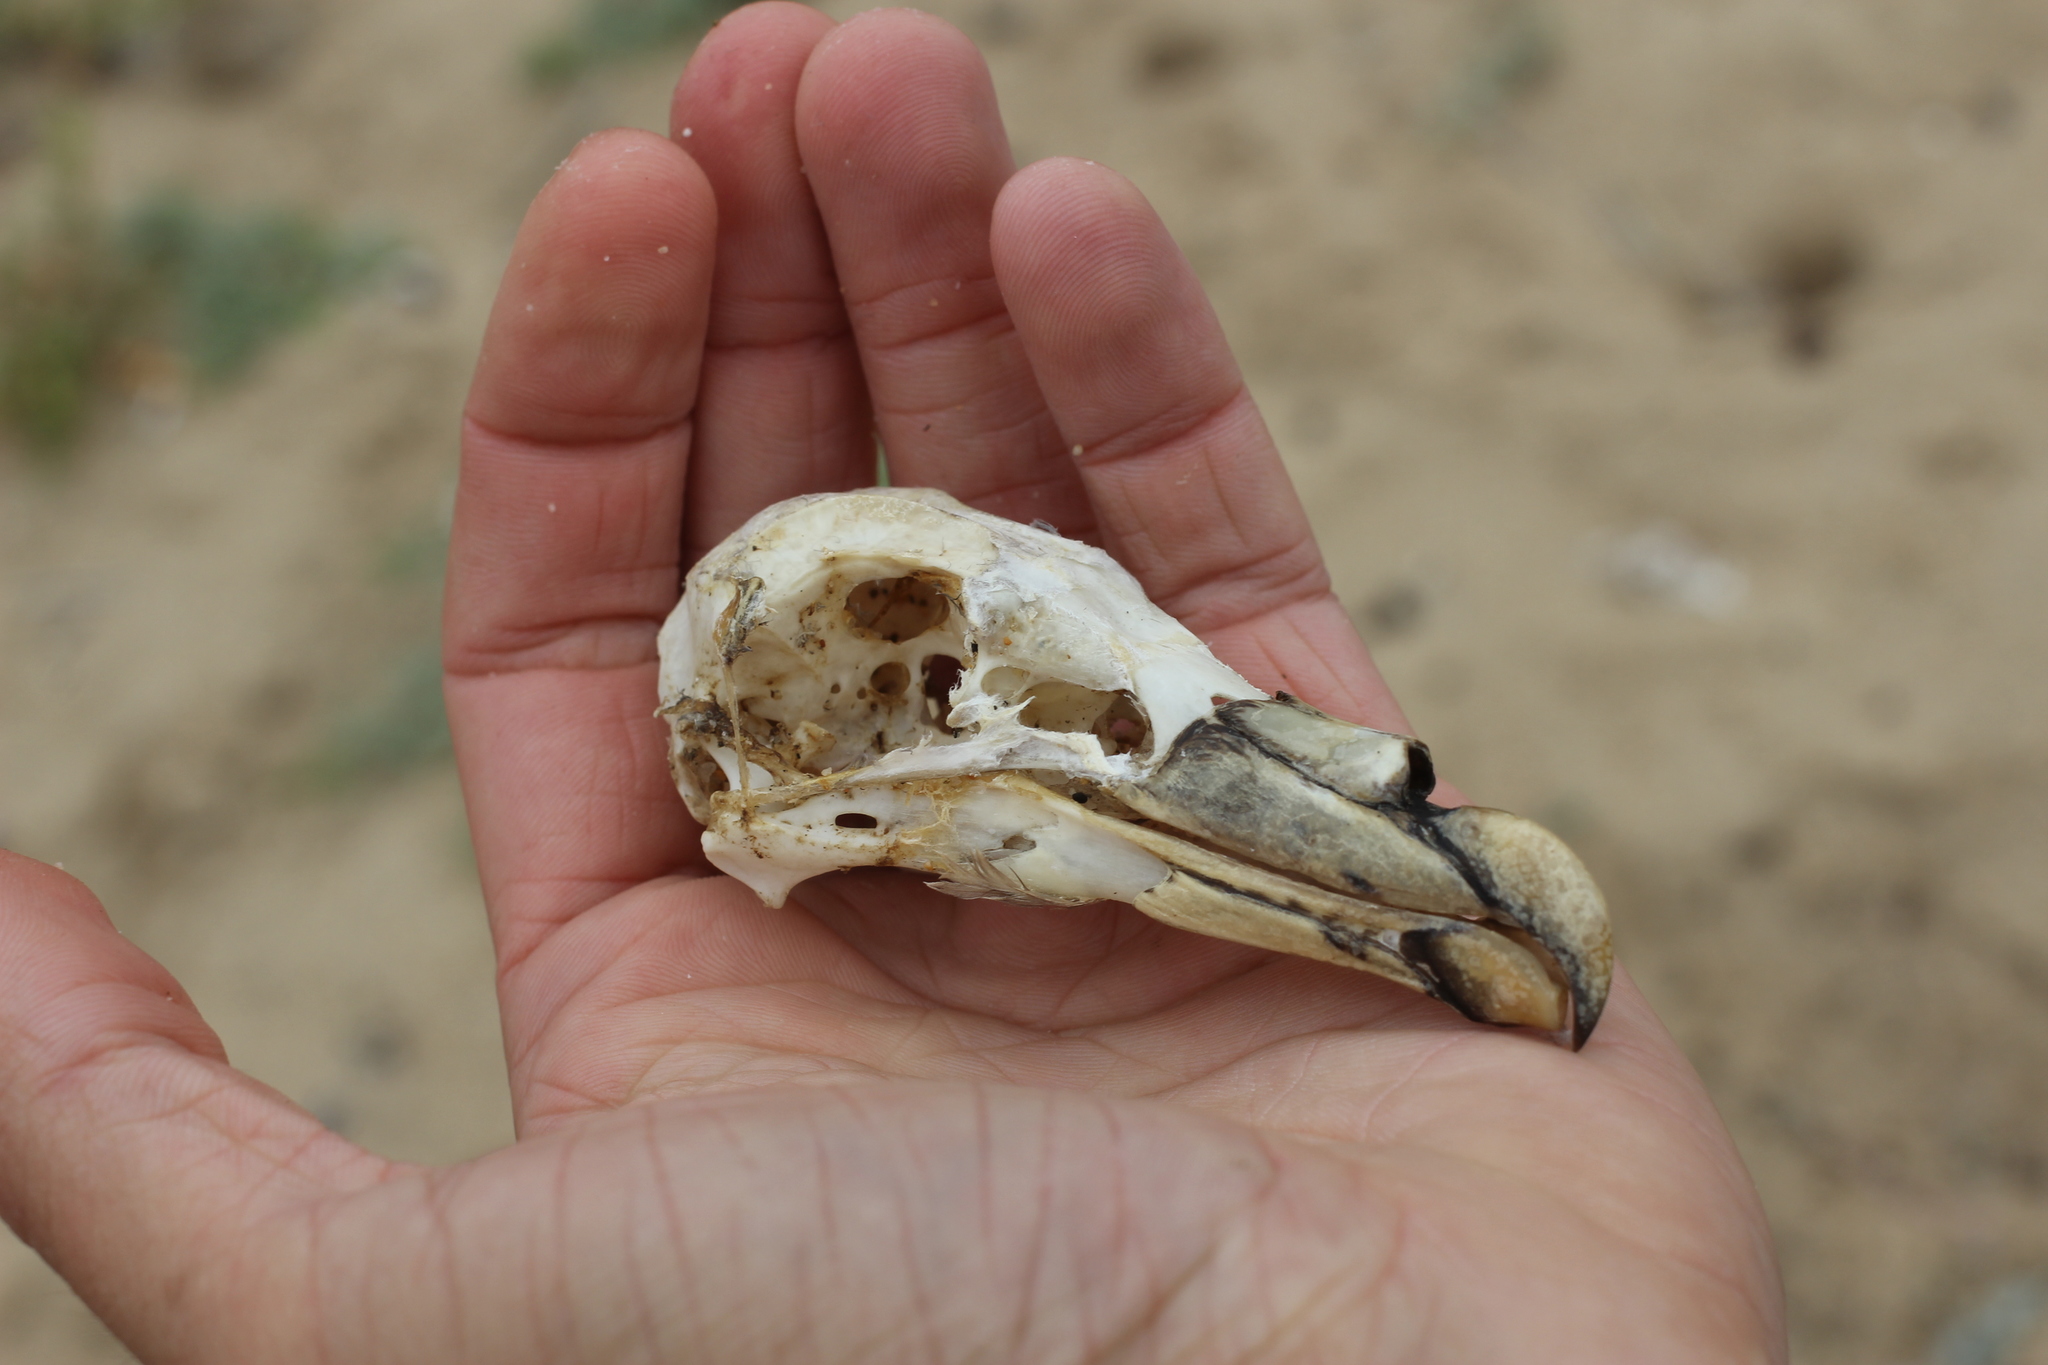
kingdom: Animalia
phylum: Chordata
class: Aves
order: Procellariiformes
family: Procellariidae
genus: Fulmarus
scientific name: Fulmarus glacialis
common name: Northern fulmar
